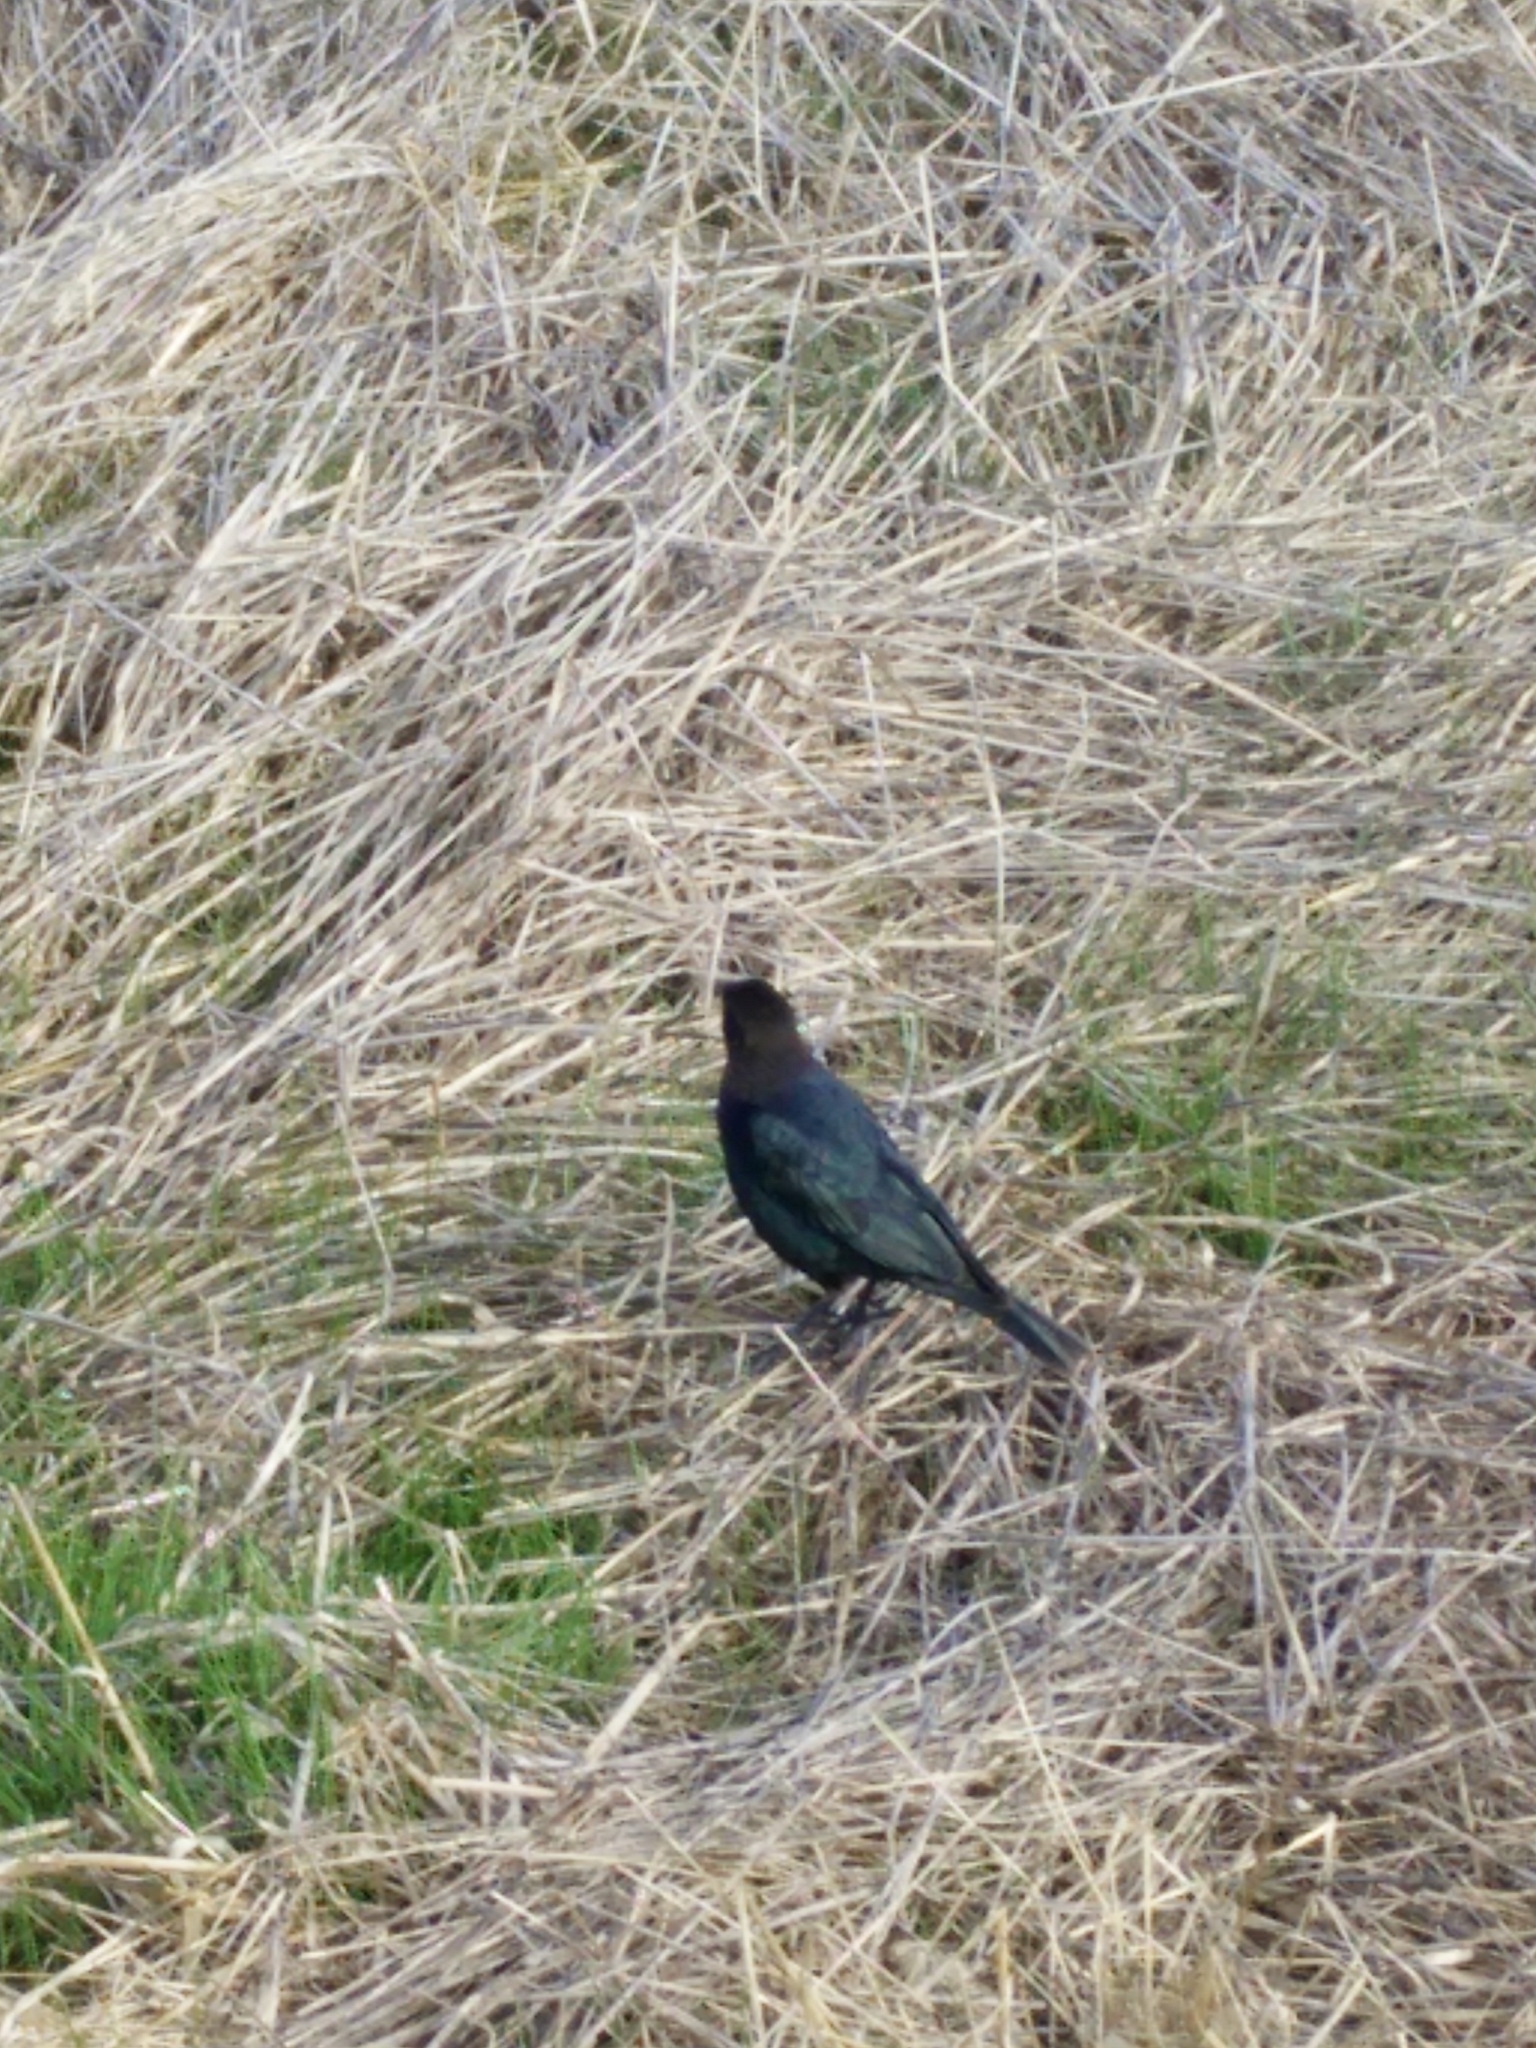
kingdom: Animalia
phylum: Chordata
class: Aves
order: Passeriformes
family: Icteridae
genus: Euphagus
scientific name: Euphagus cyanocephalus
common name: Brewer's blackbird
